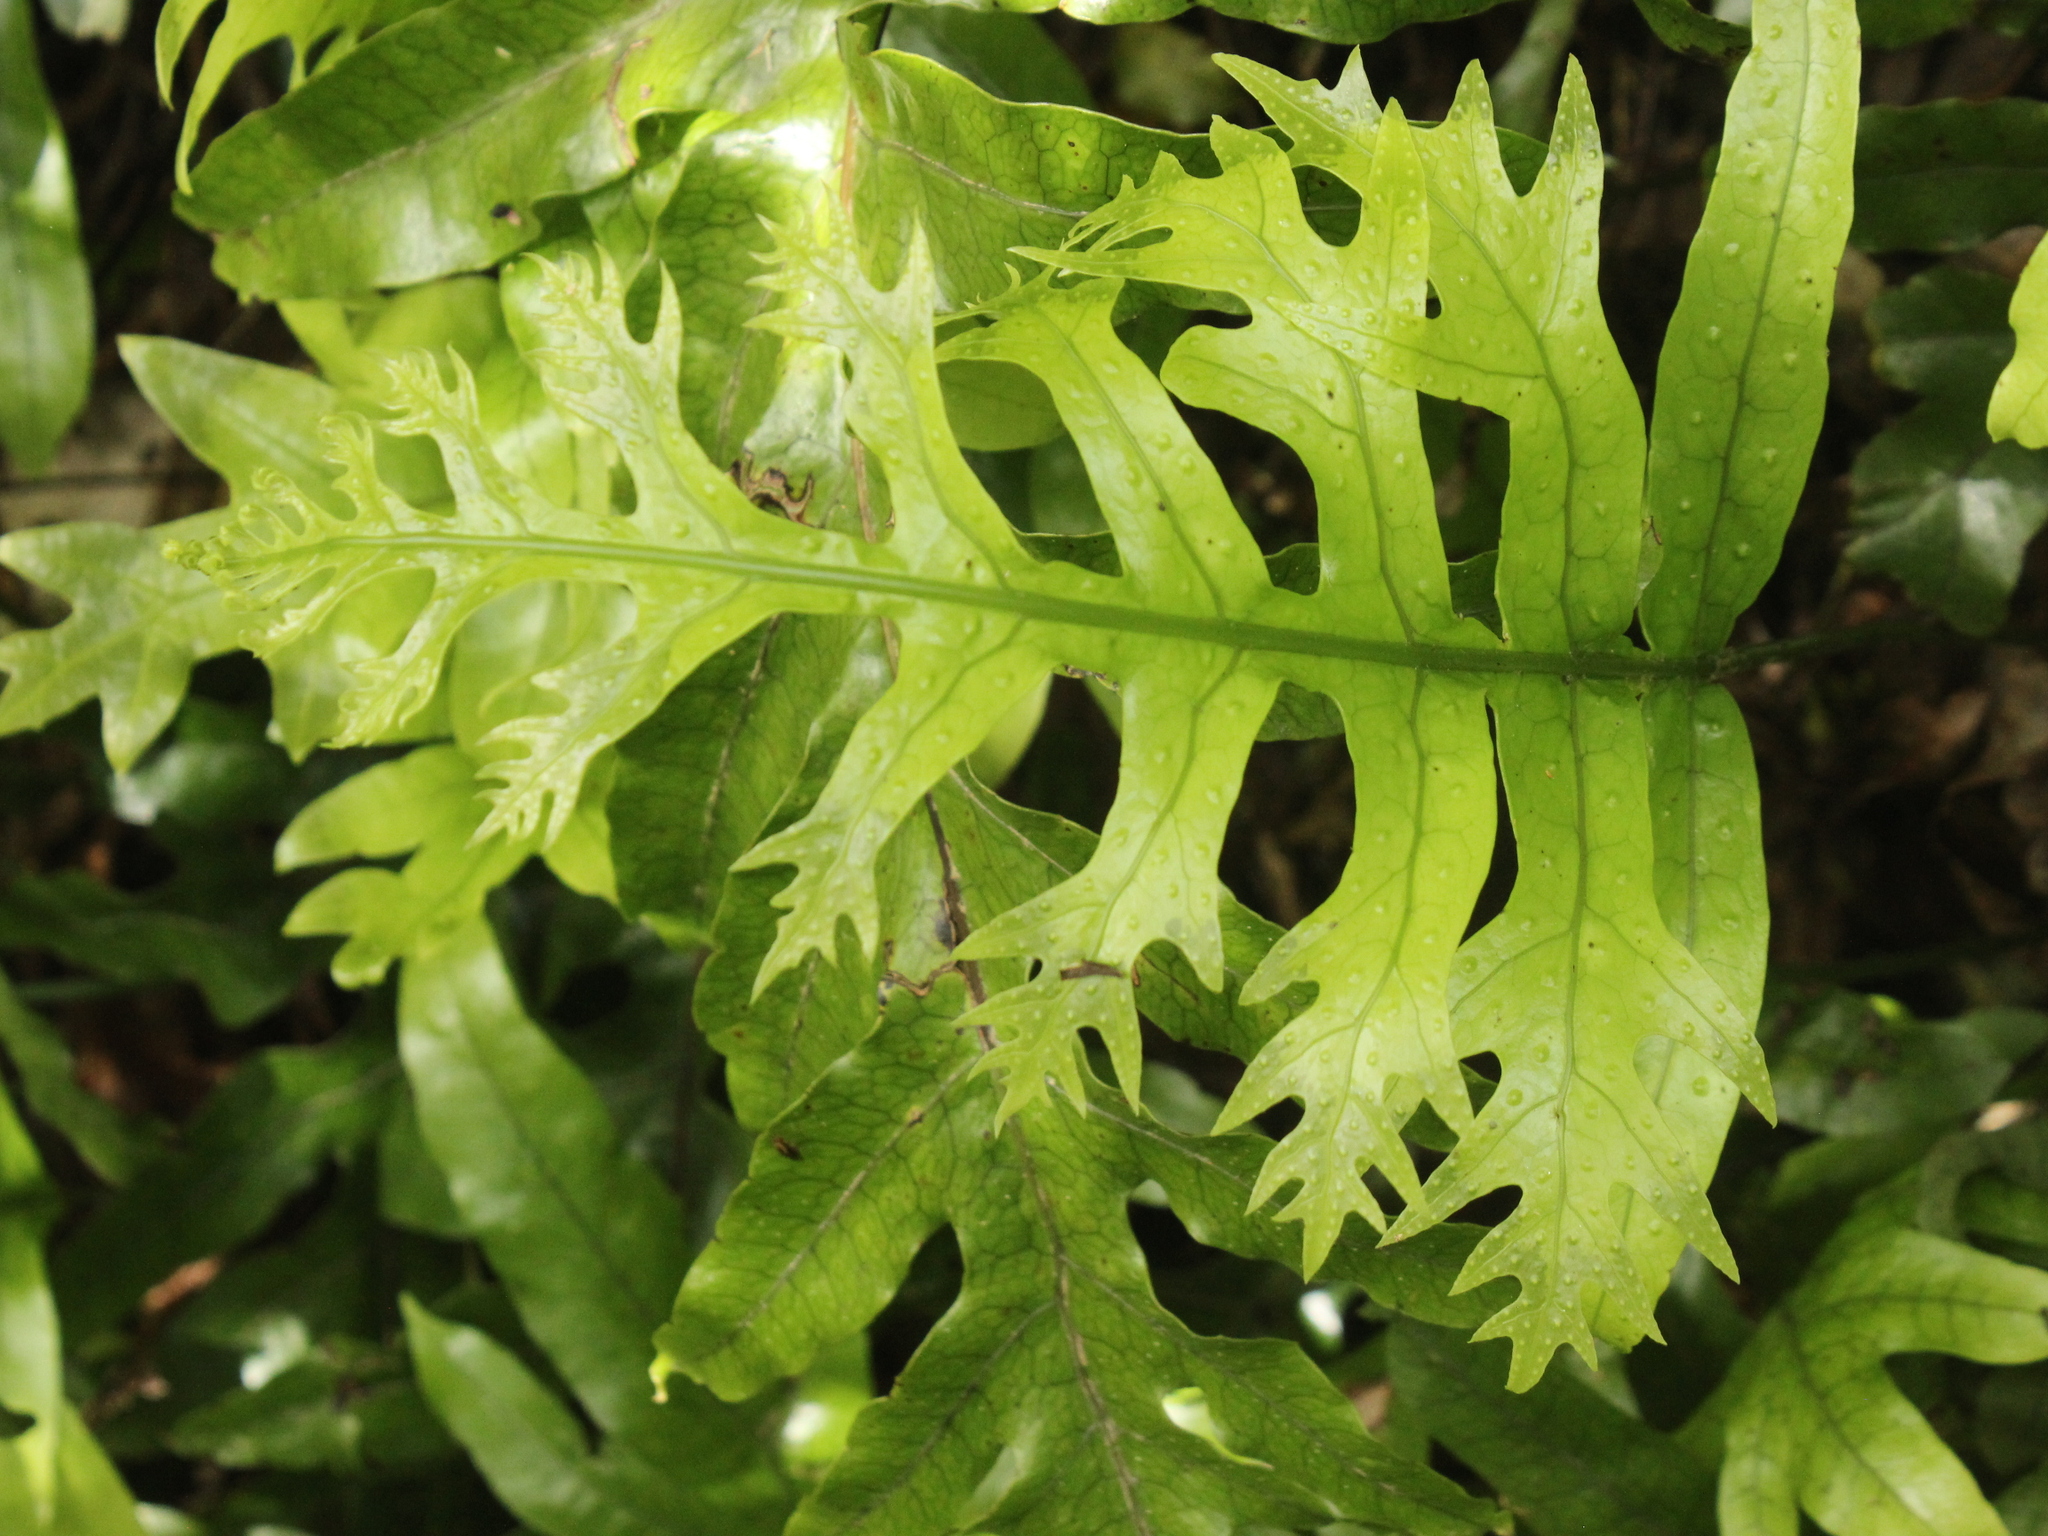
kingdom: Plantae
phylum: Tracheophyta
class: Polypodiopsida
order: Polypodiales
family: Polypodiaceae
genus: Lecanopteris
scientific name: Lecanopteris pustulata
